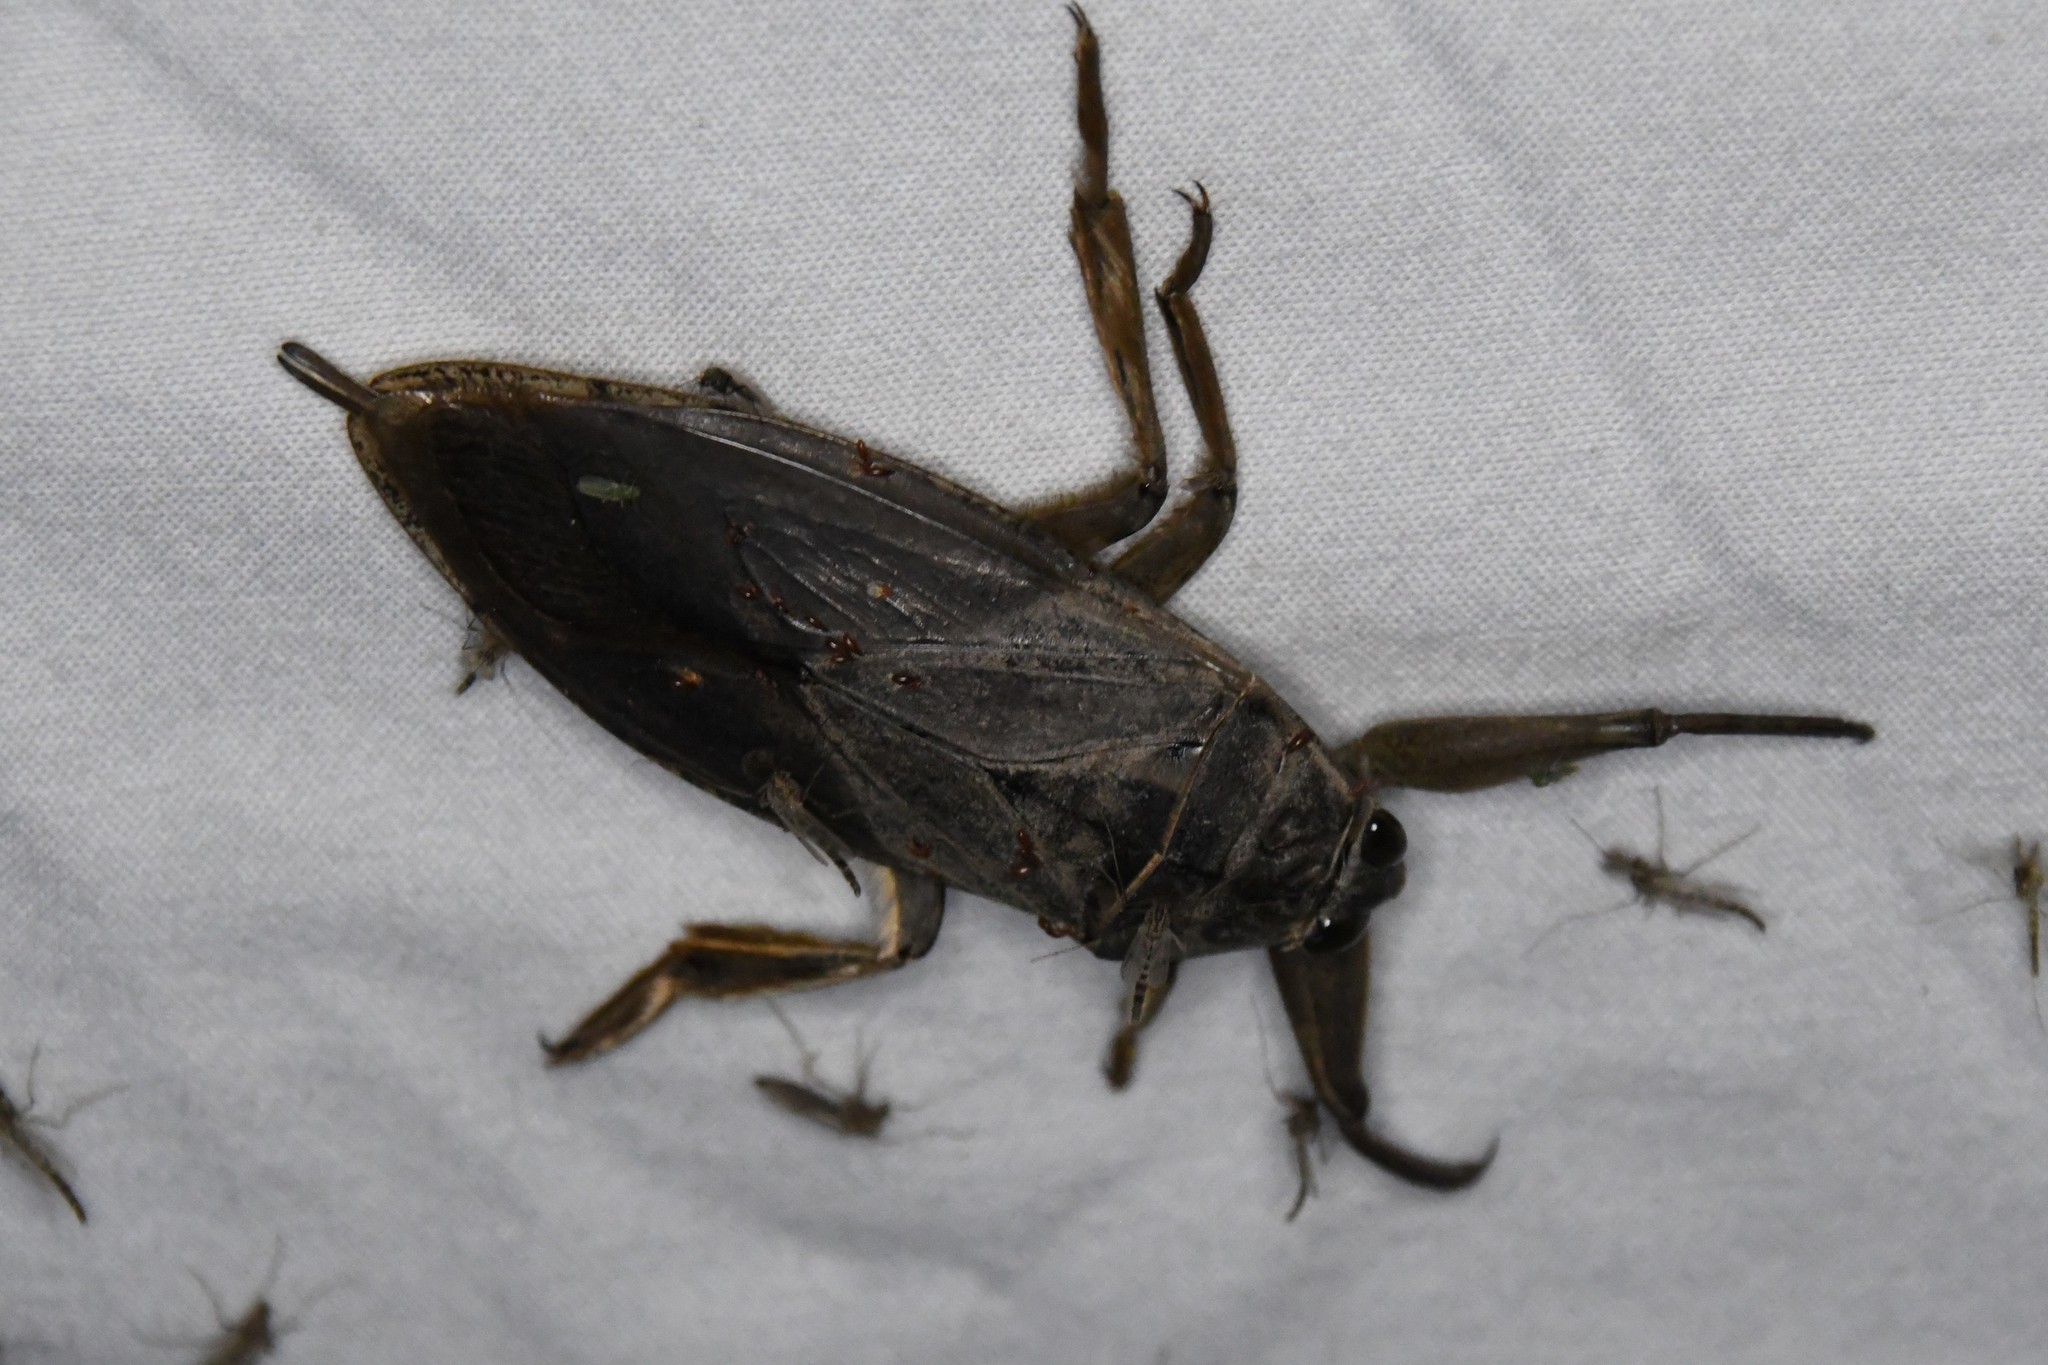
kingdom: Animalia
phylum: Arthropoda
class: Insecta
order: Hemiptera
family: Belostomatidae
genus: Lethocerus
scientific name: Lethocerus americanus
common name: Giant water bug
